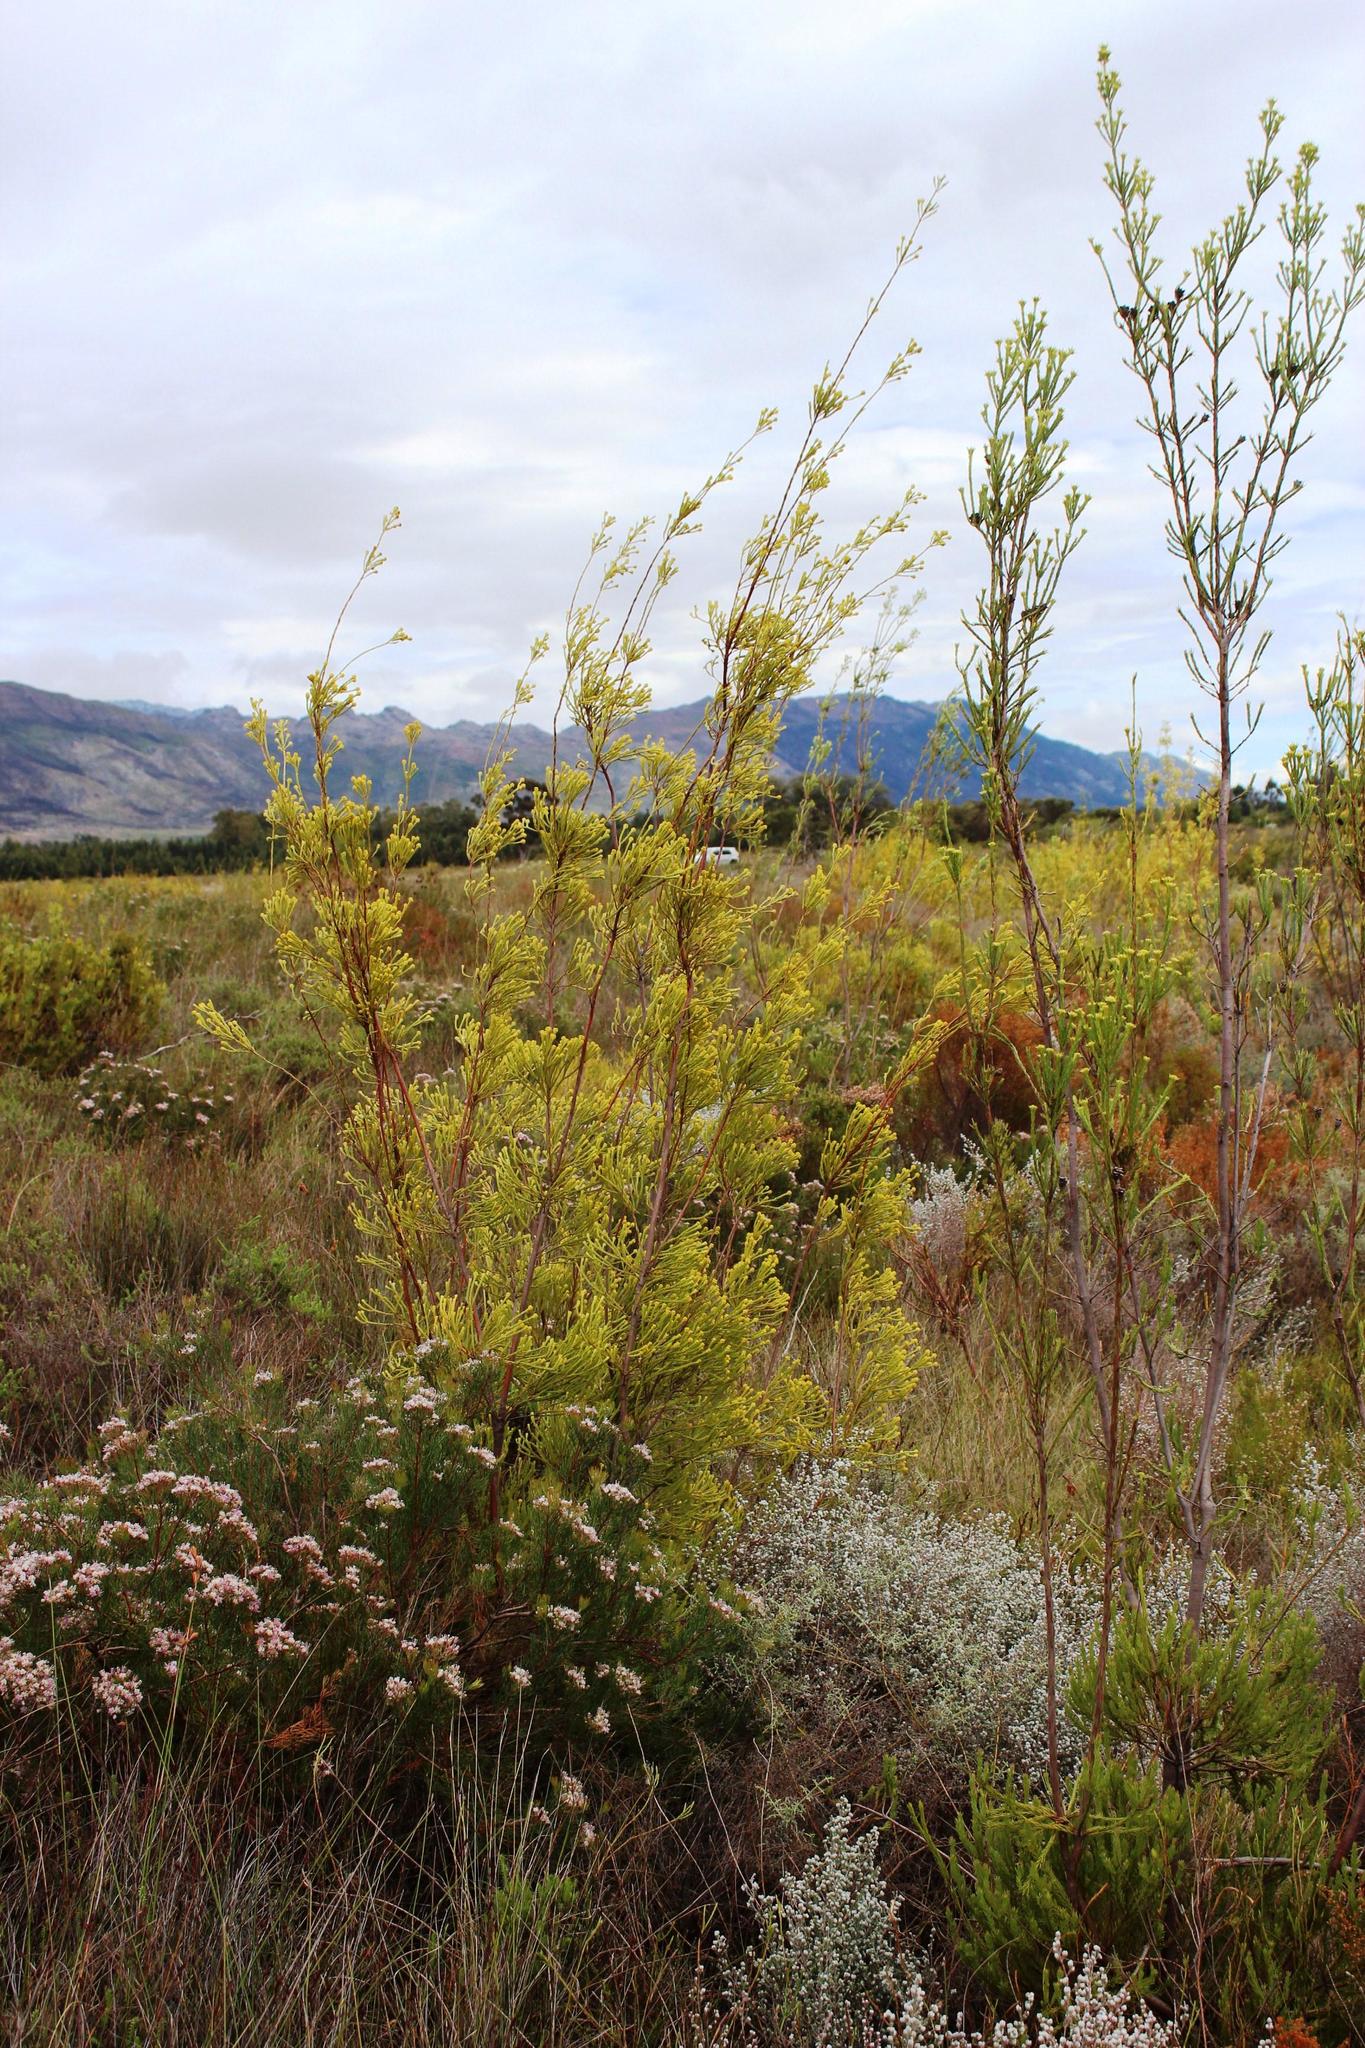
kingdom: Plantae
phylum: Tracheophyta
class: Magnoliopsida
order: Proteales
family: Proteaceae
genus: Leucadendron
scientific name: Leucadendron corymbosum
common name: Swartveld conebush
